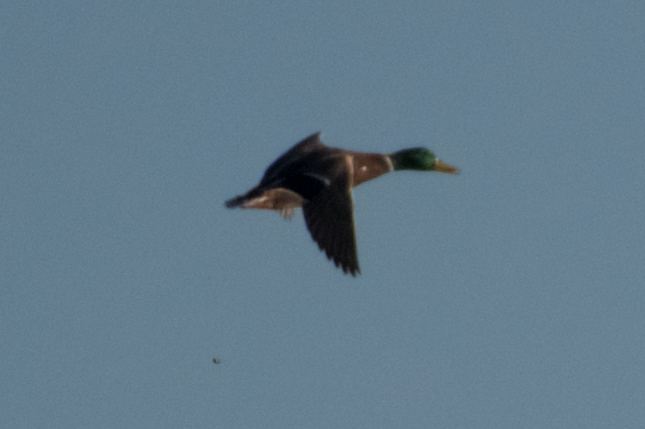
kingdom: Animalia
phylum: Chordata
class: Aves
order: Anseriformes
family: Anatidae
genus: Anas
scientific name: Anas platyrhynchos
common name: Mallard
